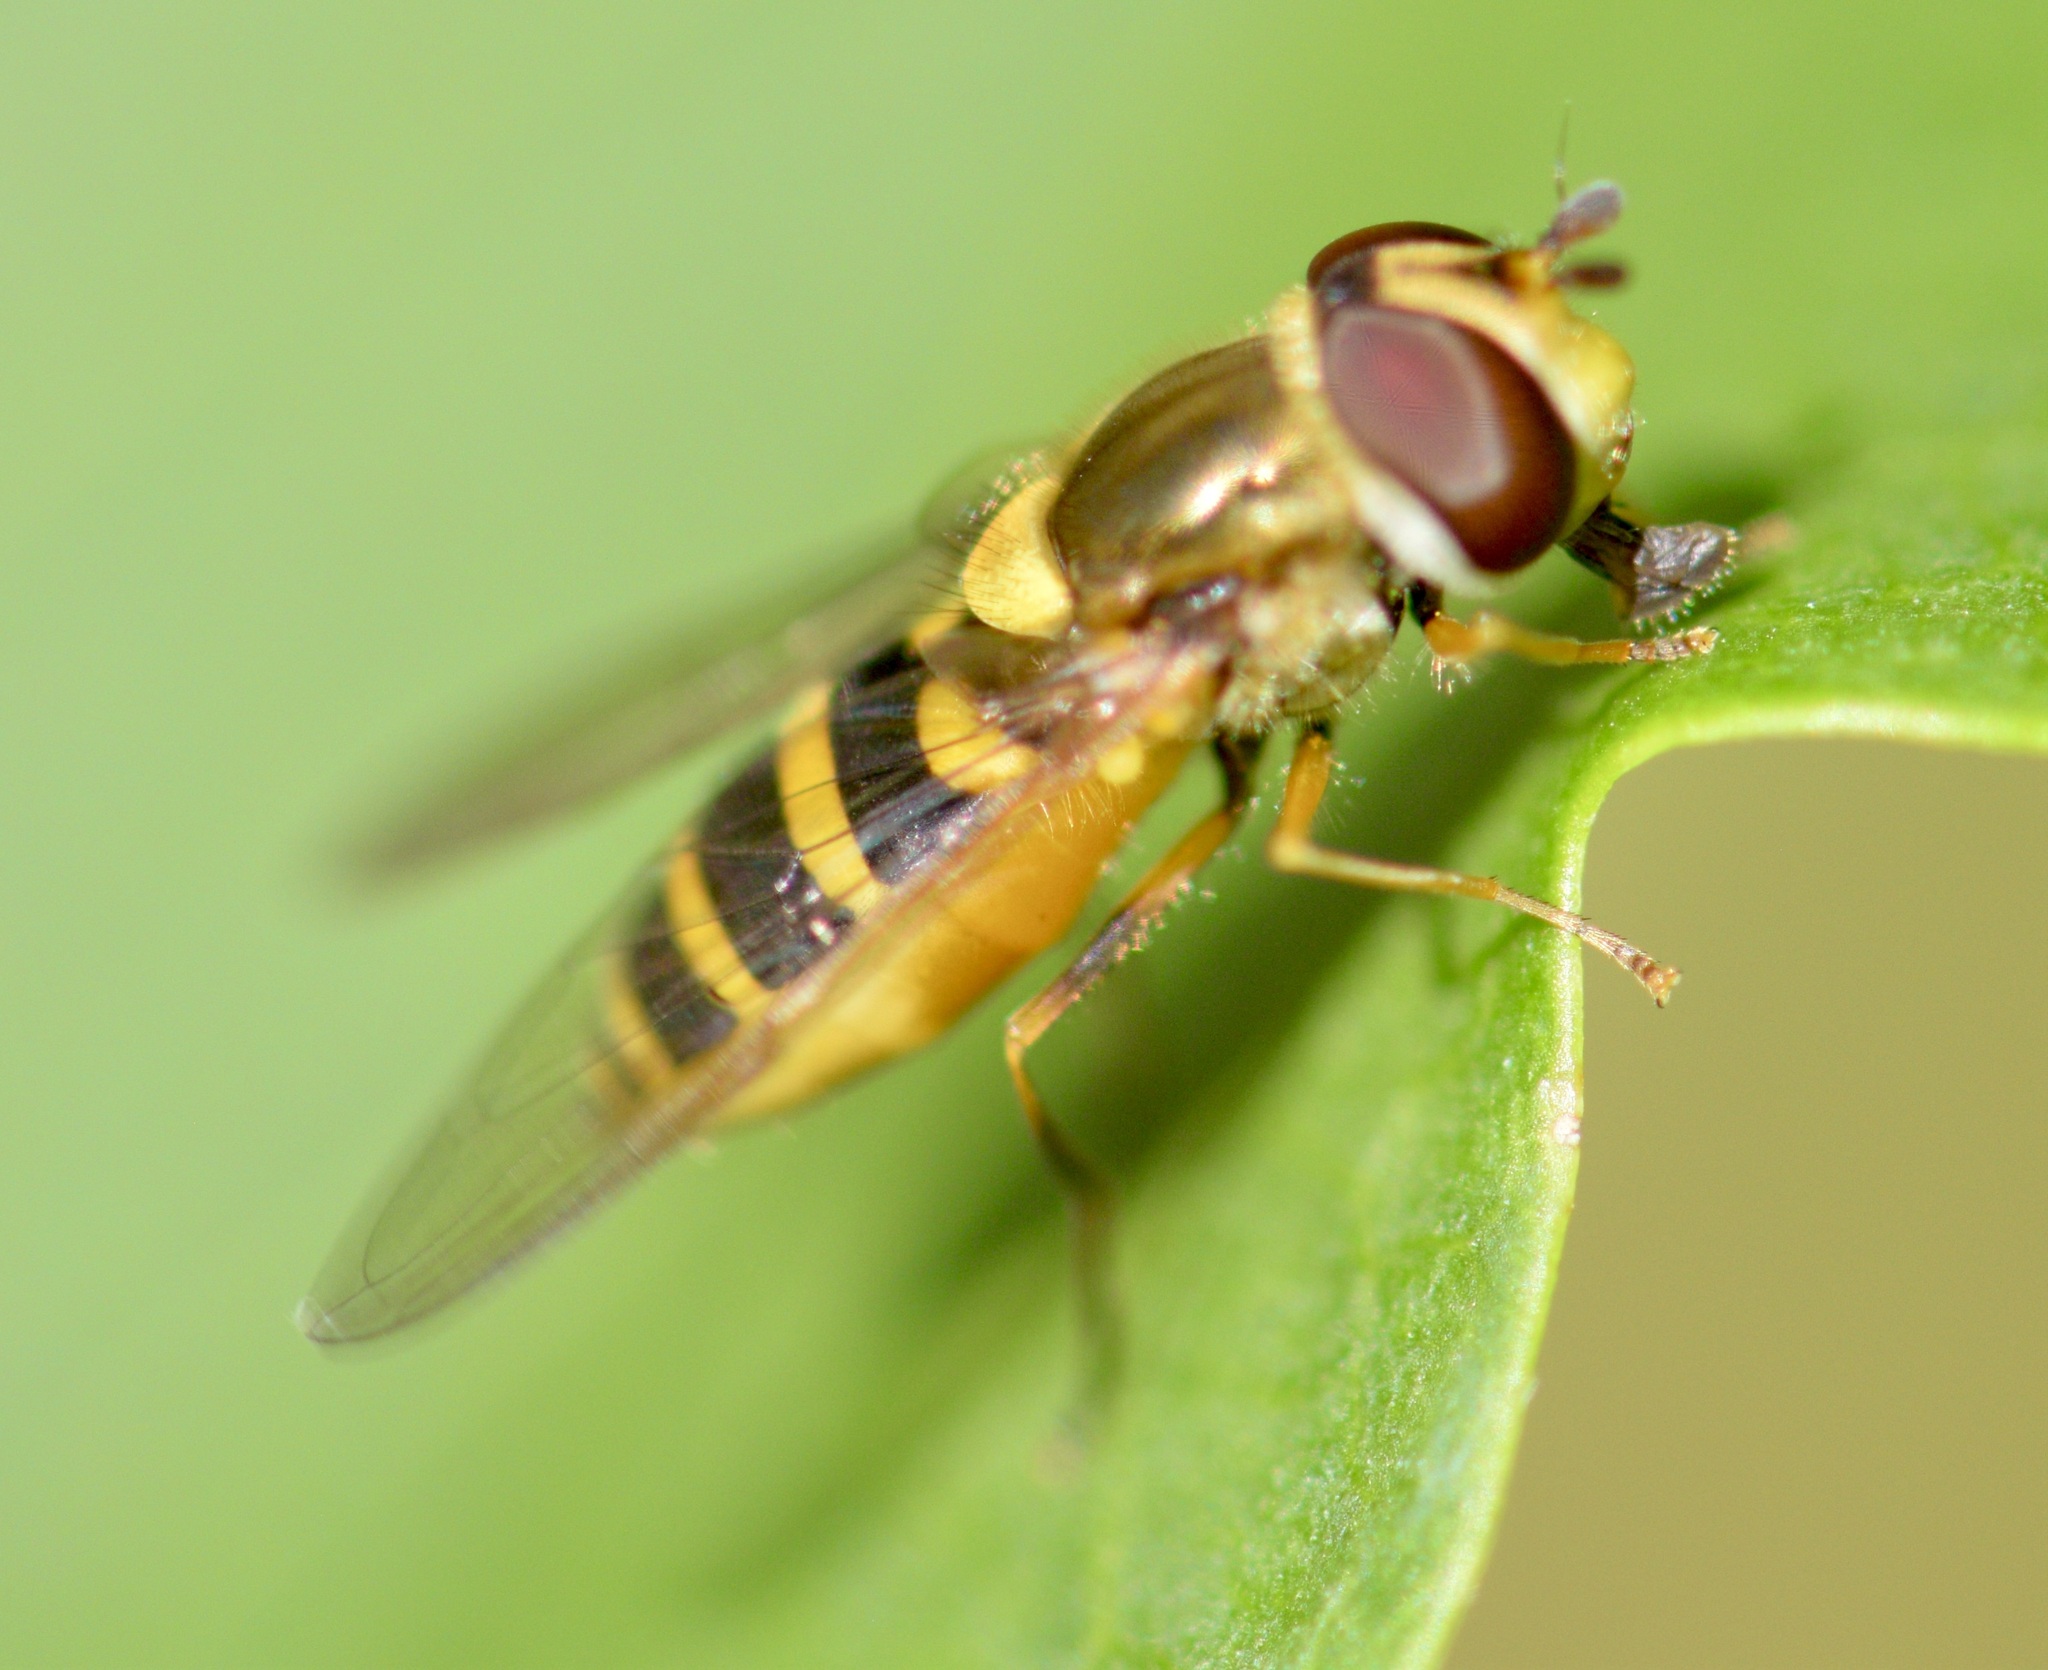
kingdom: Animalia
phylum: Arthropoda
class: Insecta
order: Diptera
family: Syrphidae
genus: Syrphus
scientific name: Syrphus rectus
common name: Yellow-legged flower fly
